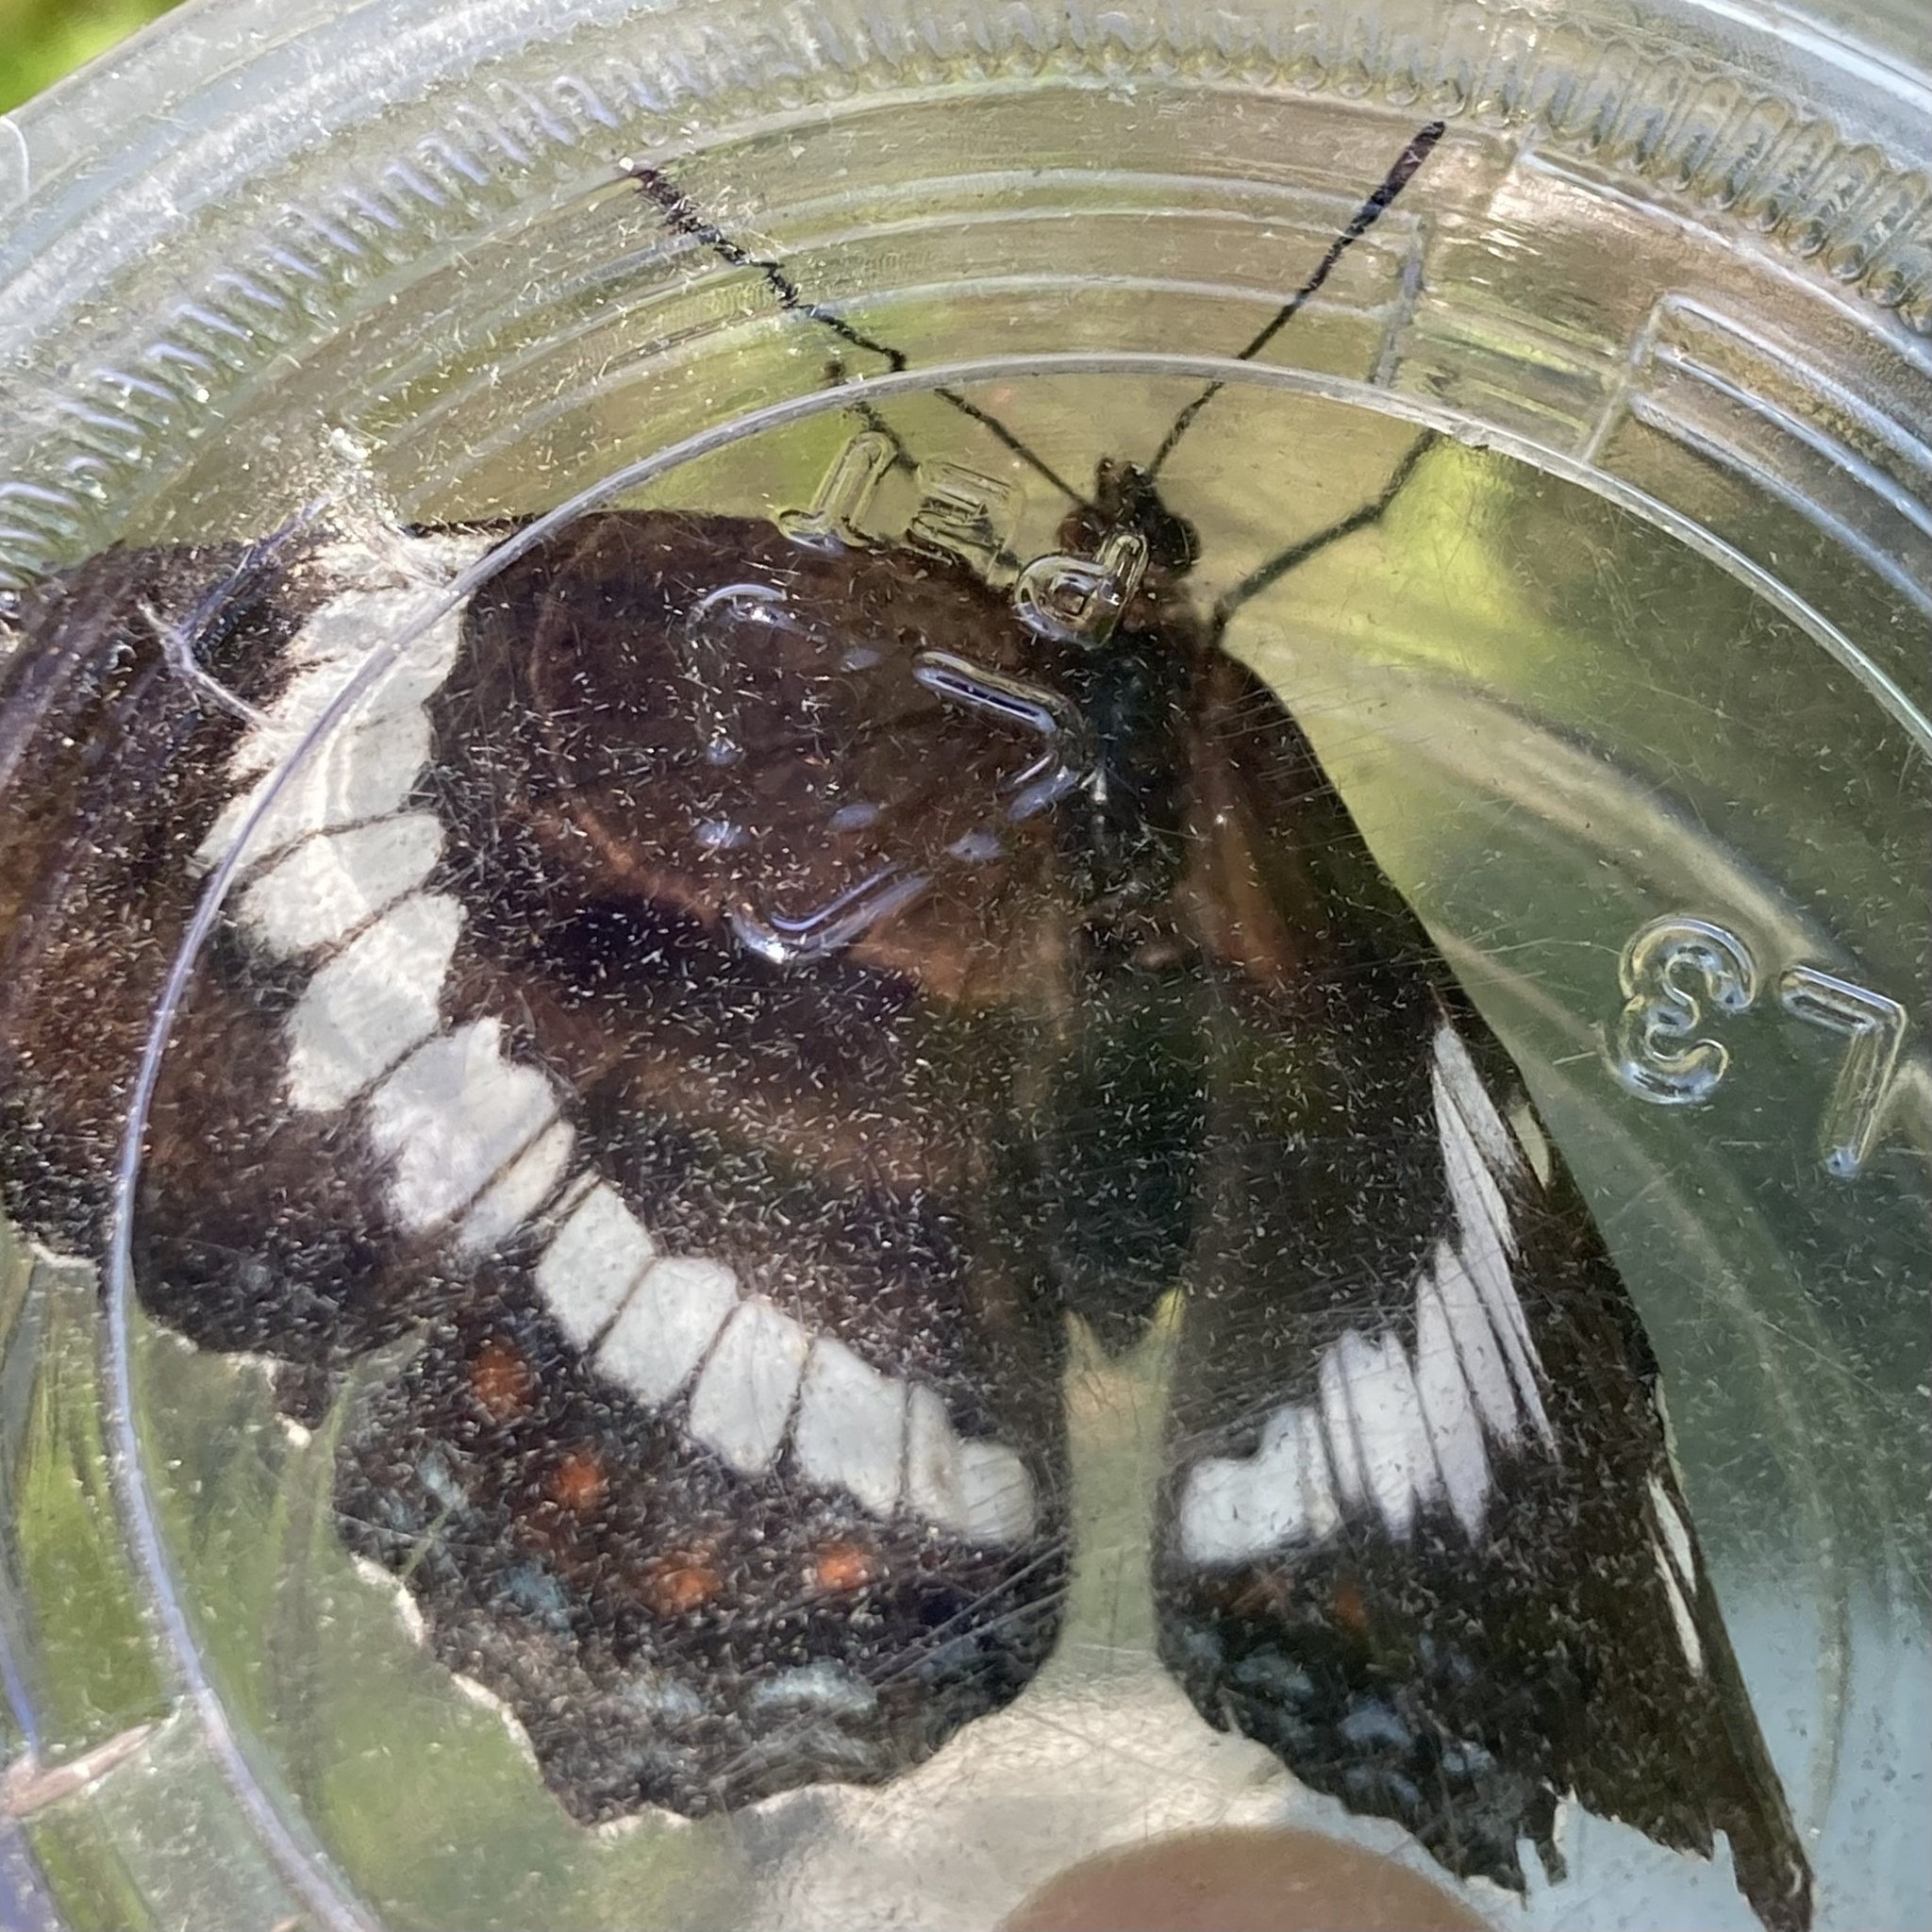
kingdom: Animalia
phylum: Arthropoda
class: Insecta
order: Lepidoptera
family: Nymphalidae
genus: Limenitis
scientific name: Limenitis arthemis
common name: Red-spotted admiral
